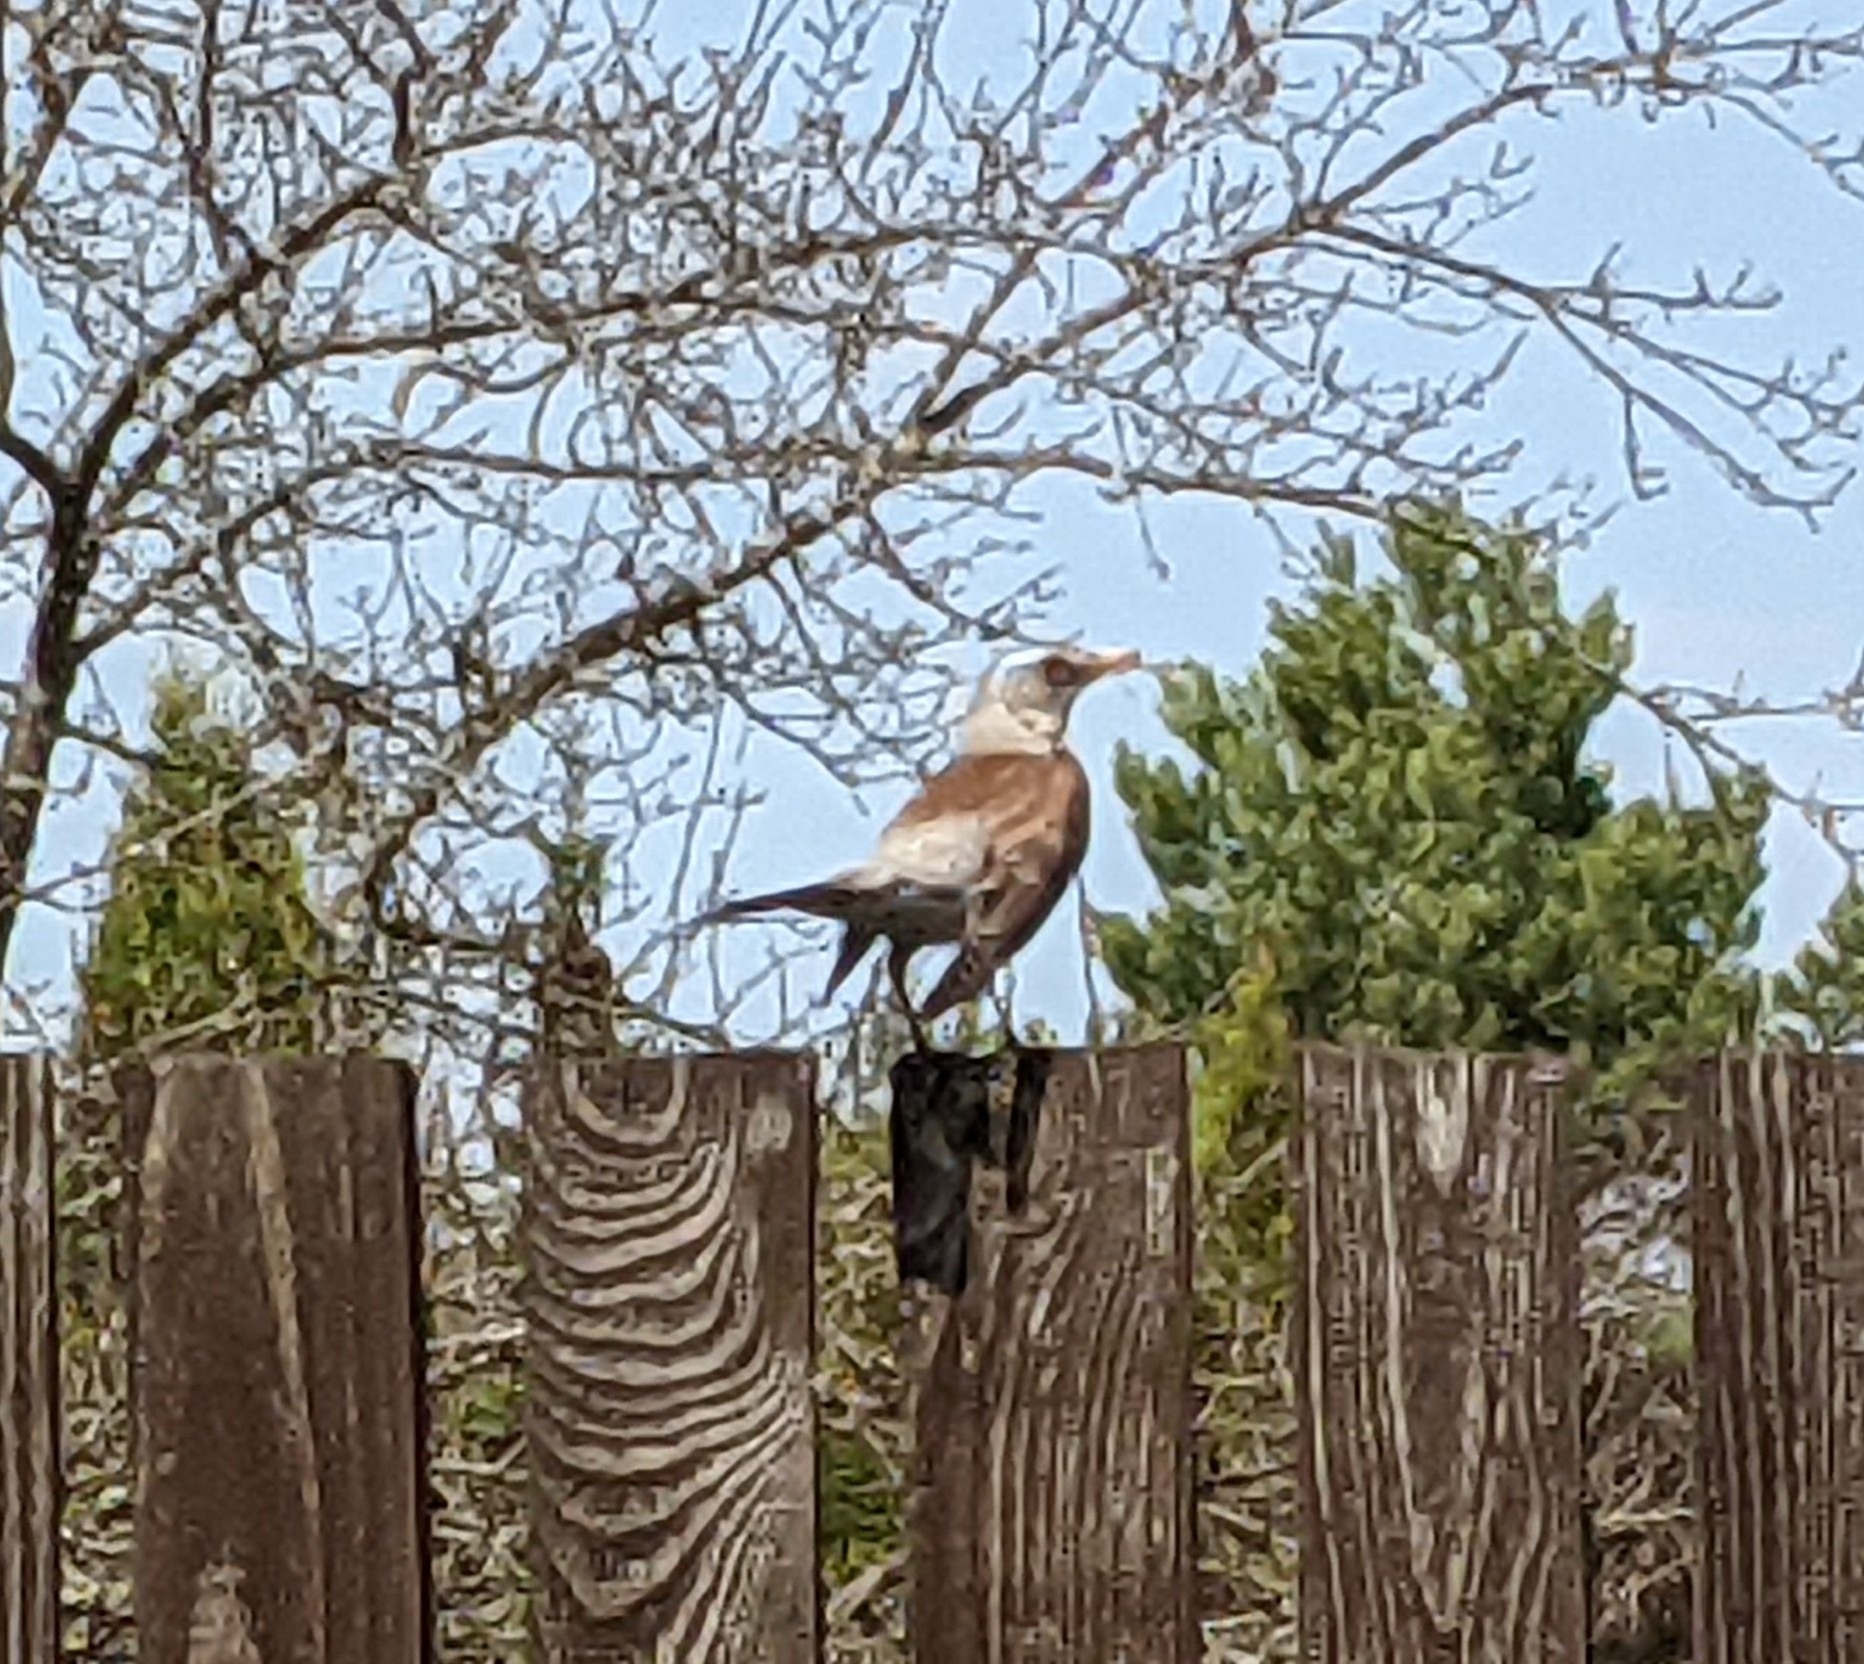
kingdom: Animalia
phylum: Chordata
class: Aves
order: Passeriformes
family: Turdidae
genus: Turdus
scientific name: Turdus pilaris
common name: Fieldfare
